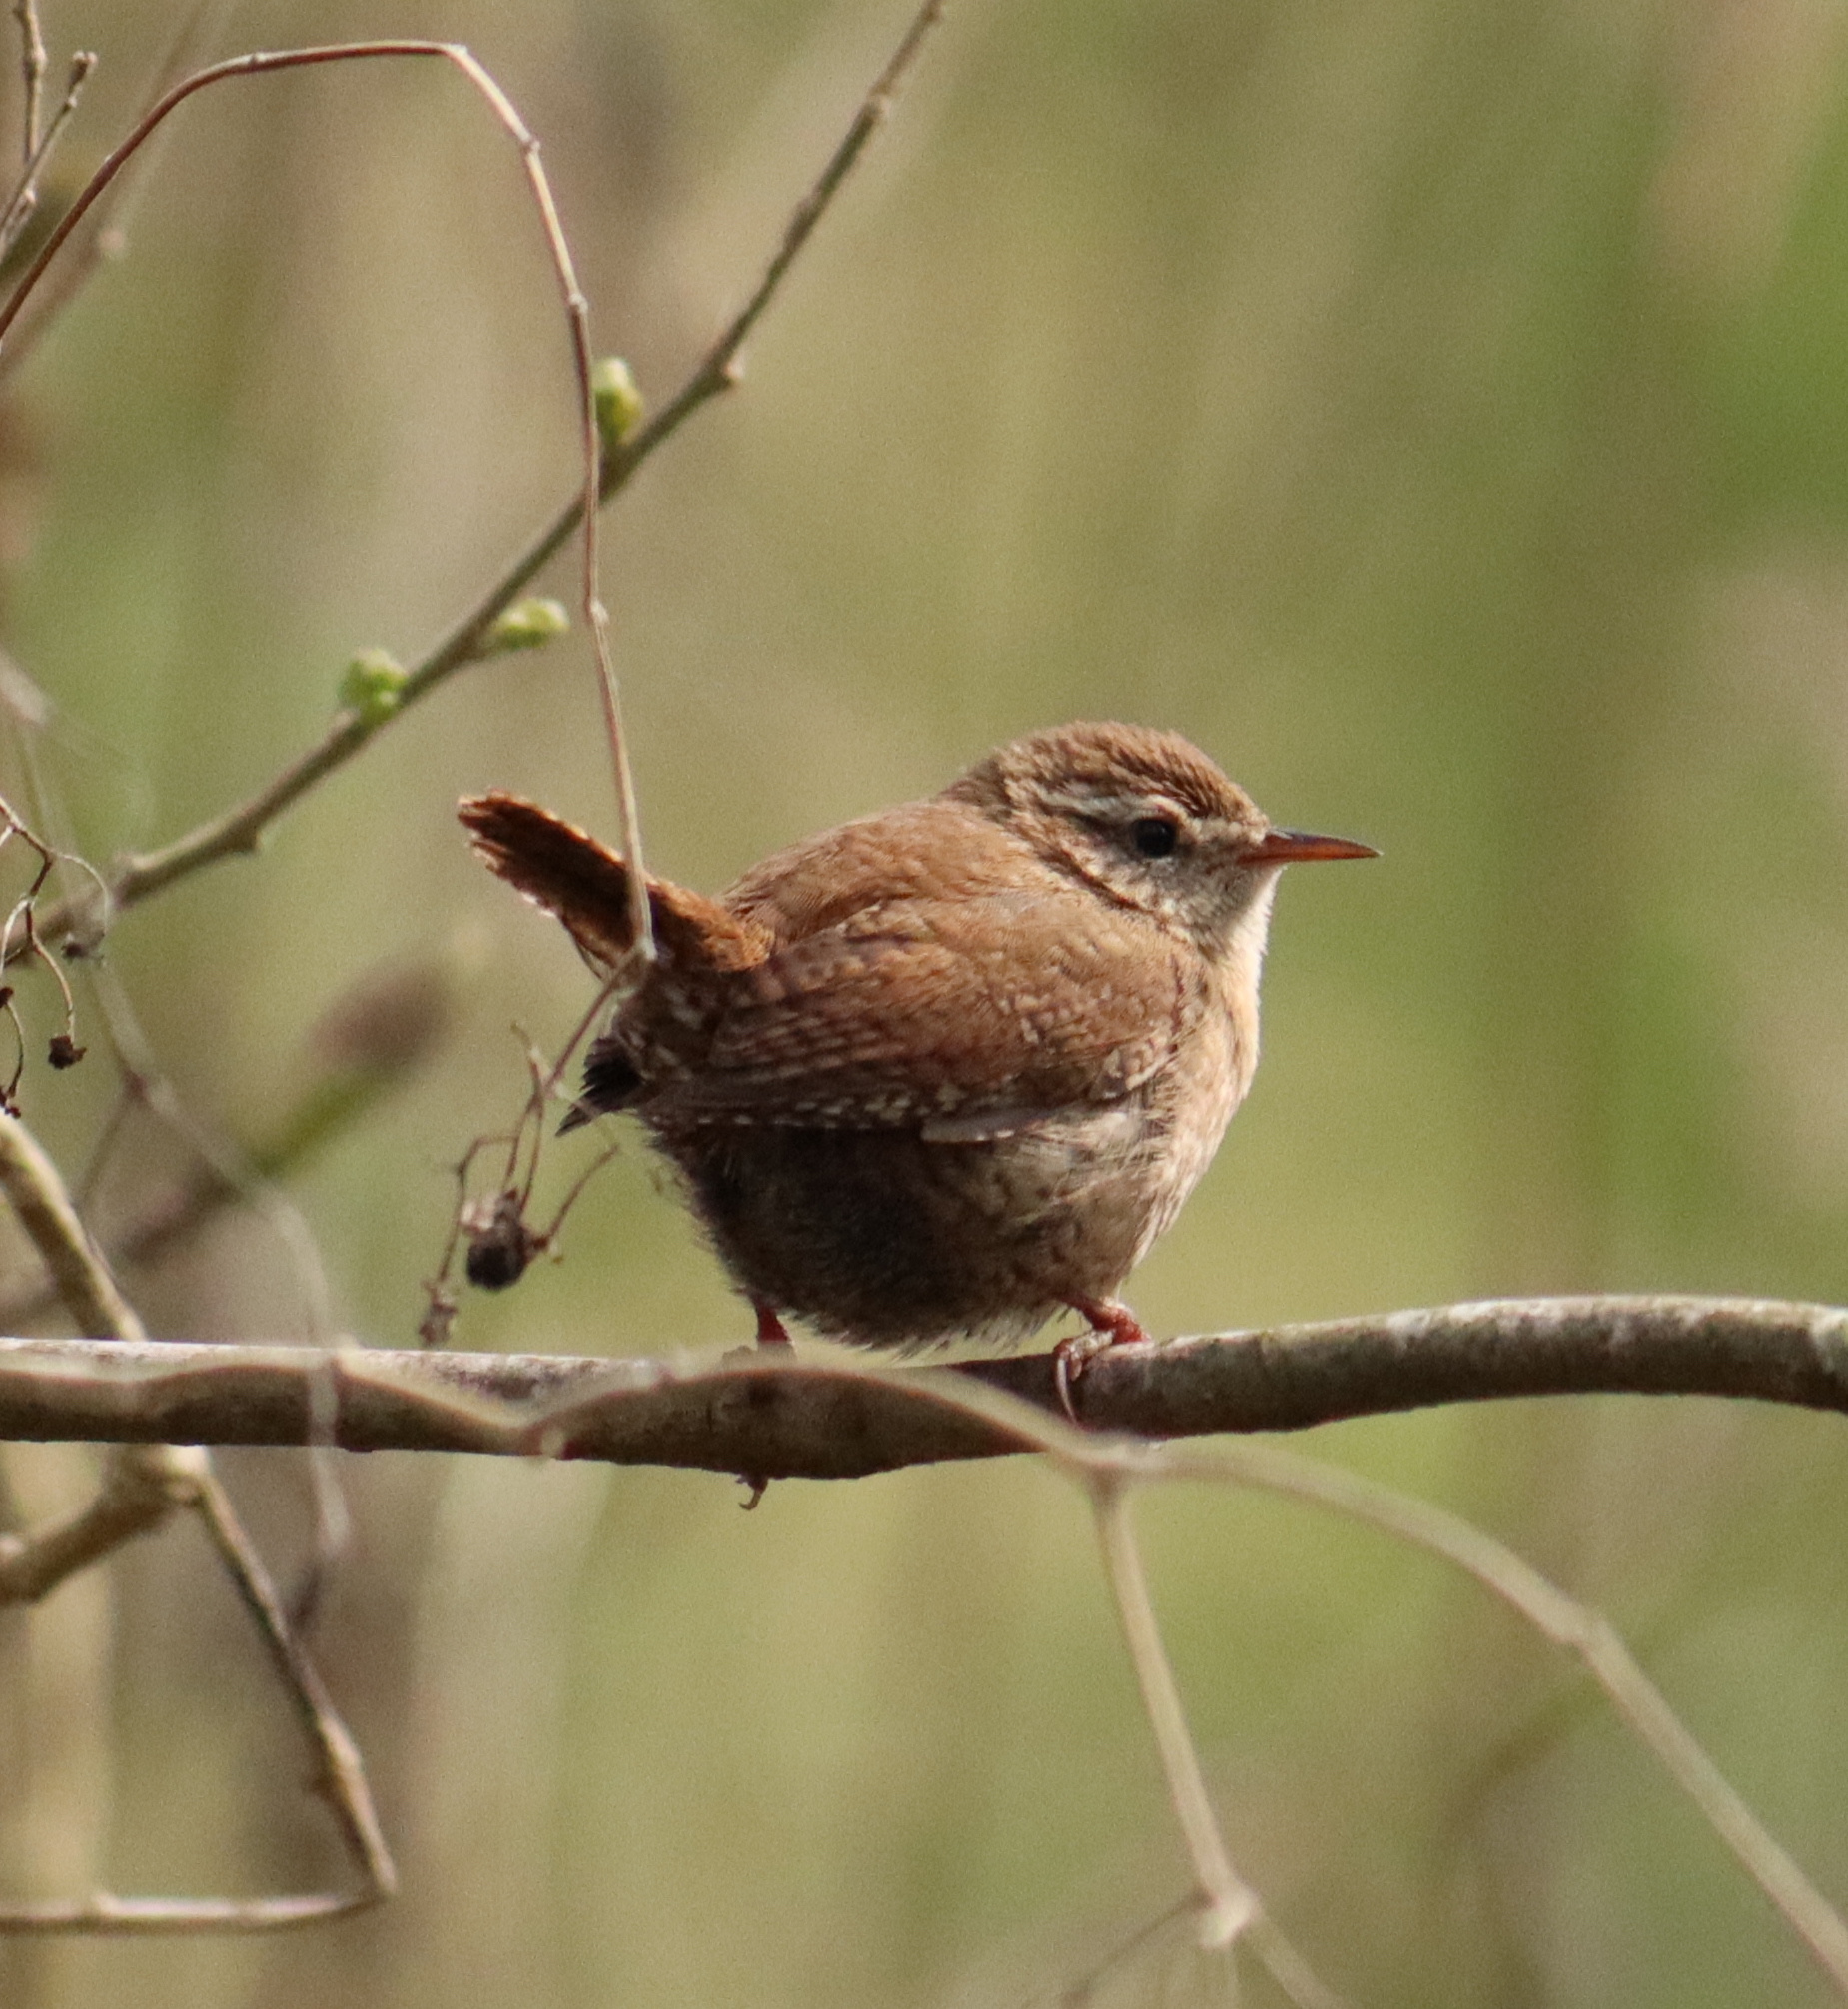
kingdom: Animalia
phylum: Chordata
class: Aves
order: Passeriformes
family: Troglodytidae
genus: Troglodytes
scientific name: Troglodytes troglodytes
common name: Eurasian wren
